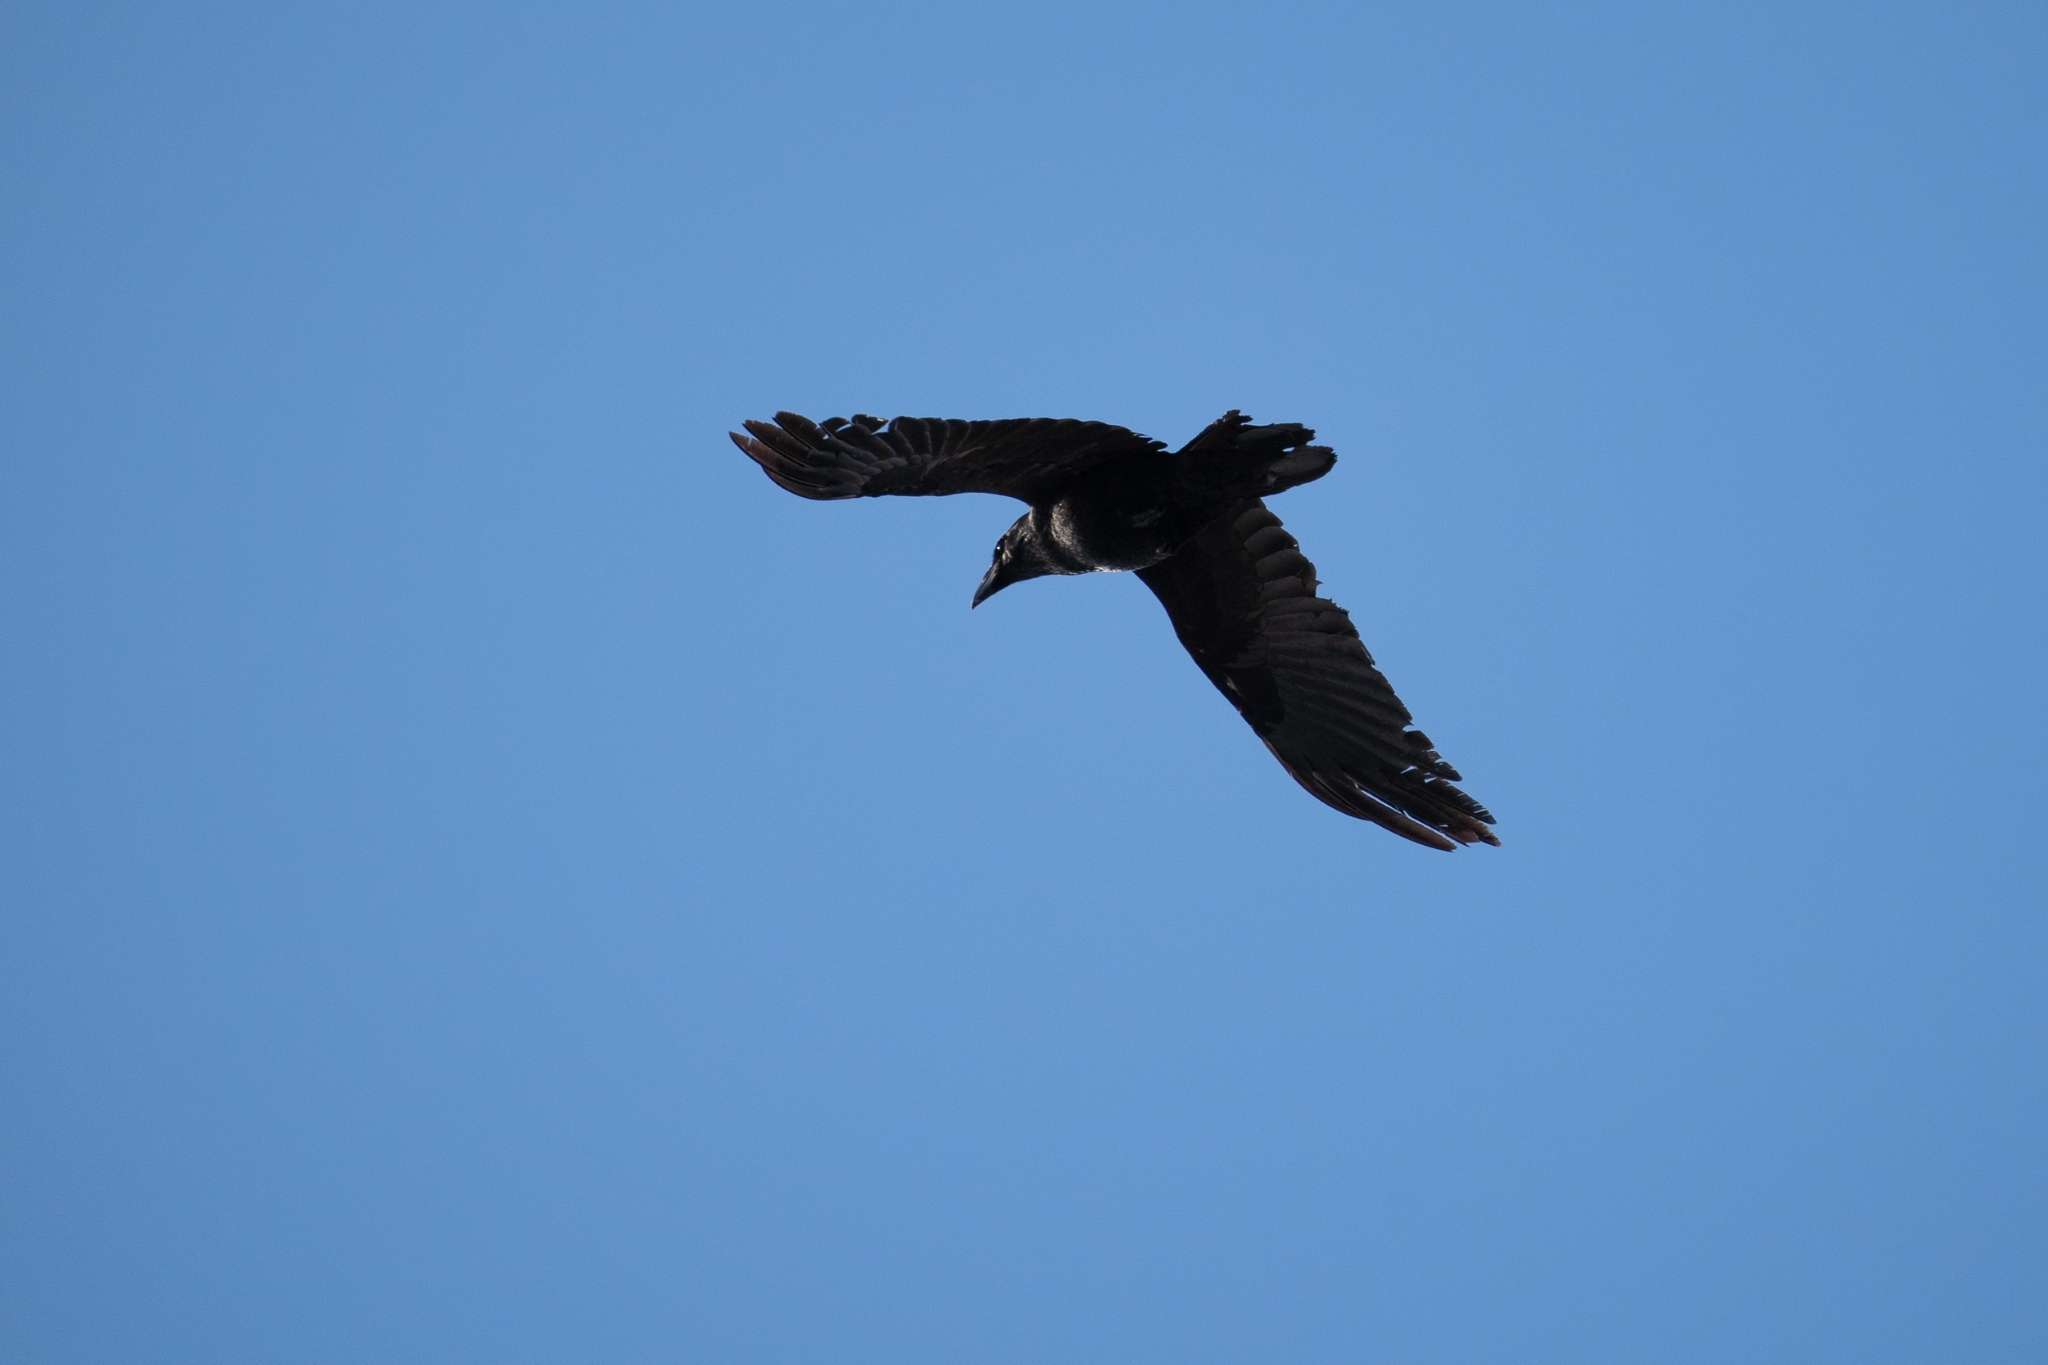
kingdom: Animalia
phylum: Chordata
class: Aves
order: Passeriformes
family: Corvidae
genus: Corvus
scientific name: Corvus corax
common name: Common raven
